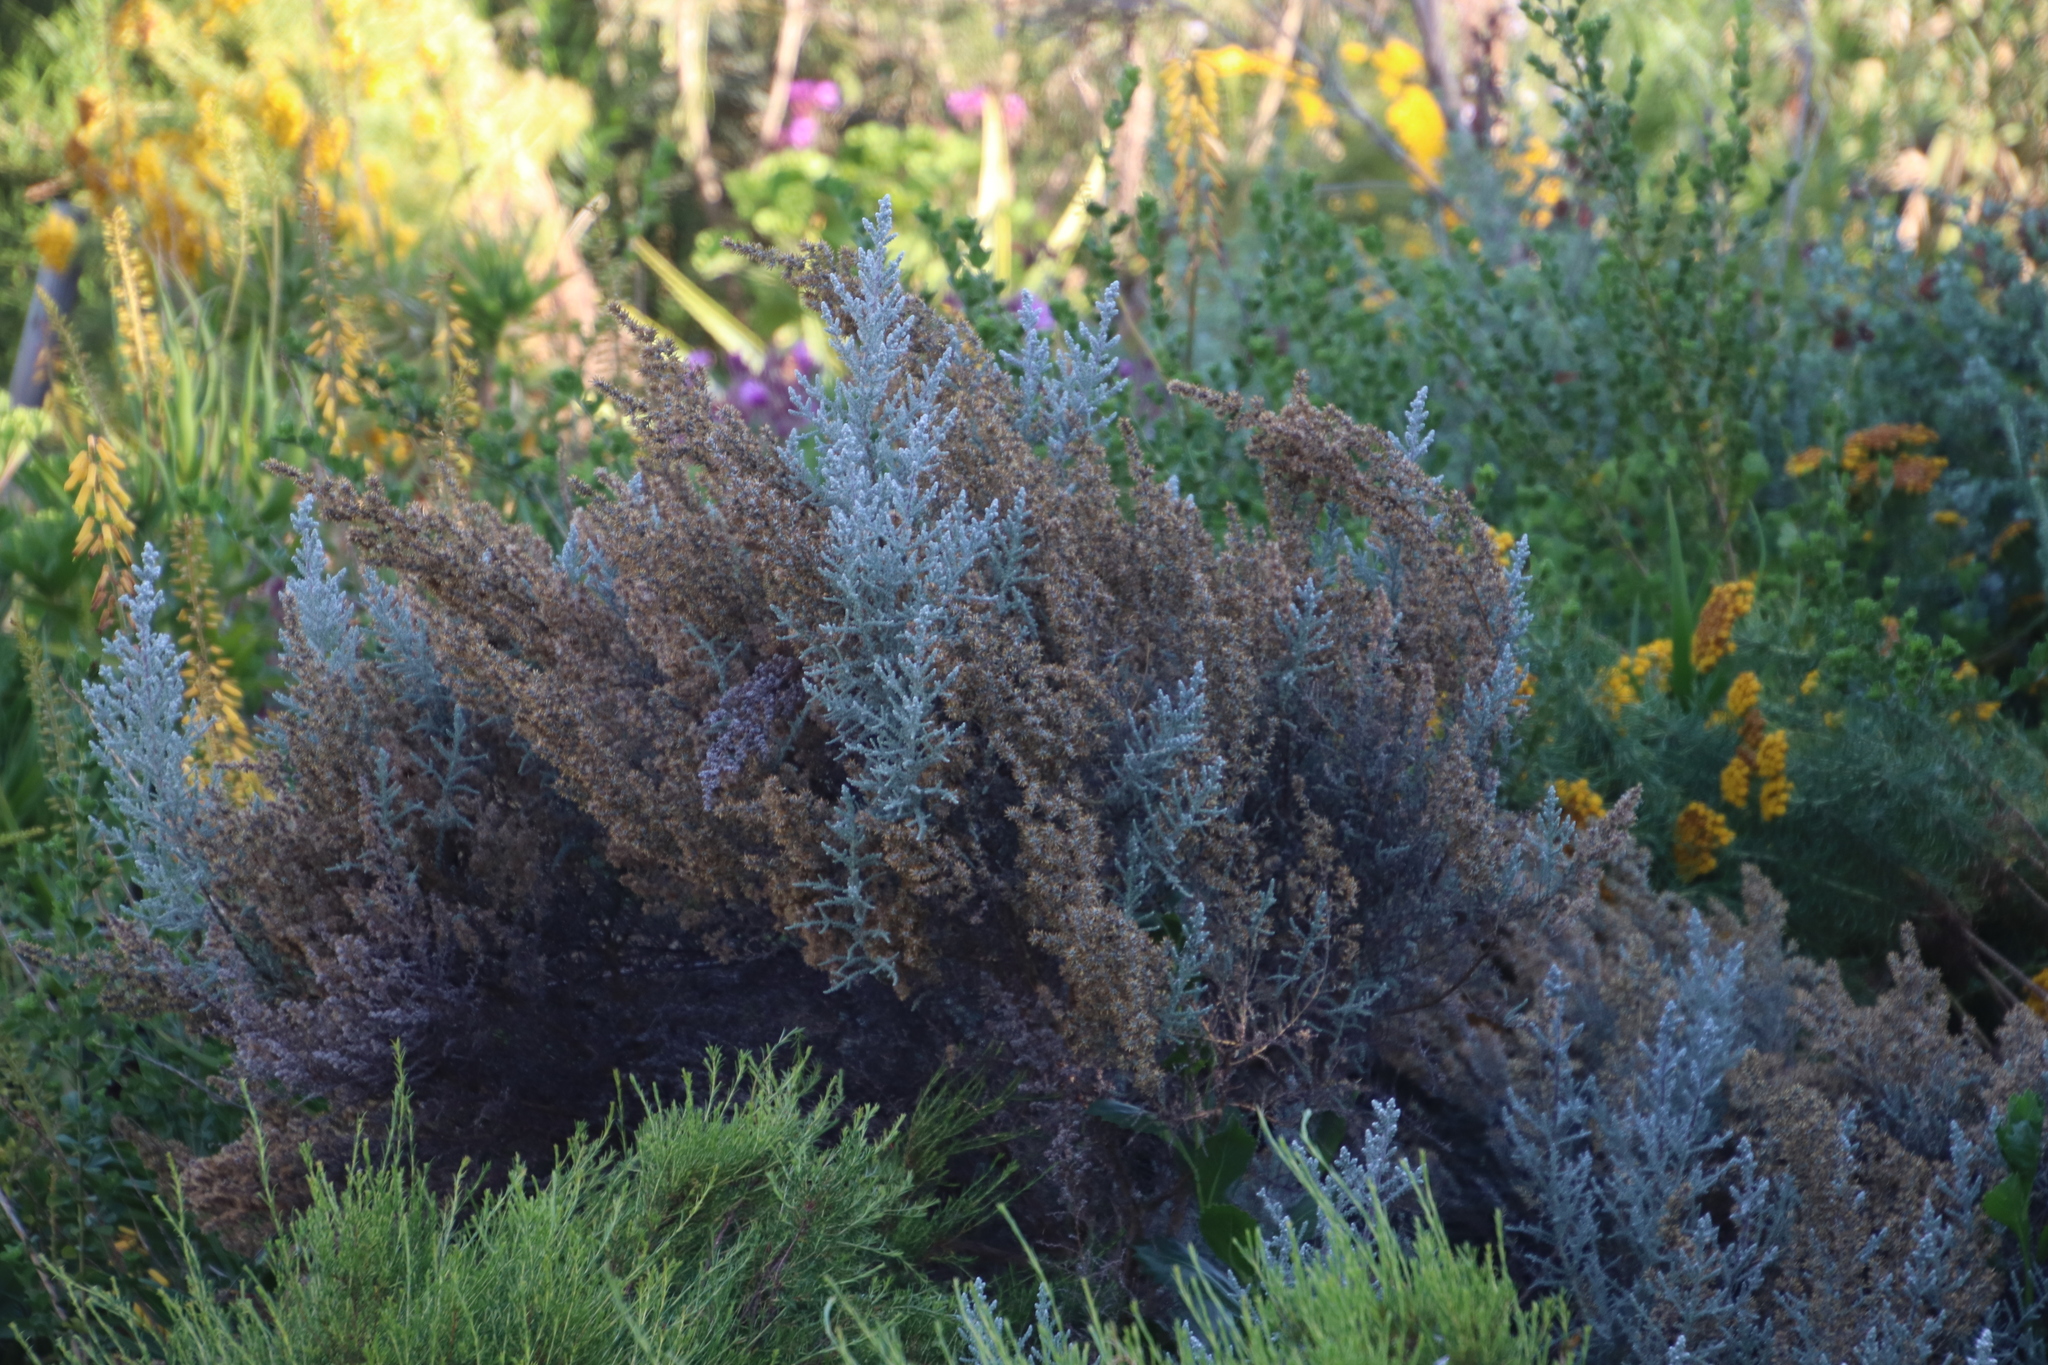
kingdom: Plantae
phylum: Tracheophyta
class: Magnoliopsida
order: Asterales
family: Asteraceae
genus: Seriphium
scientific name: Seriphium plumosum
